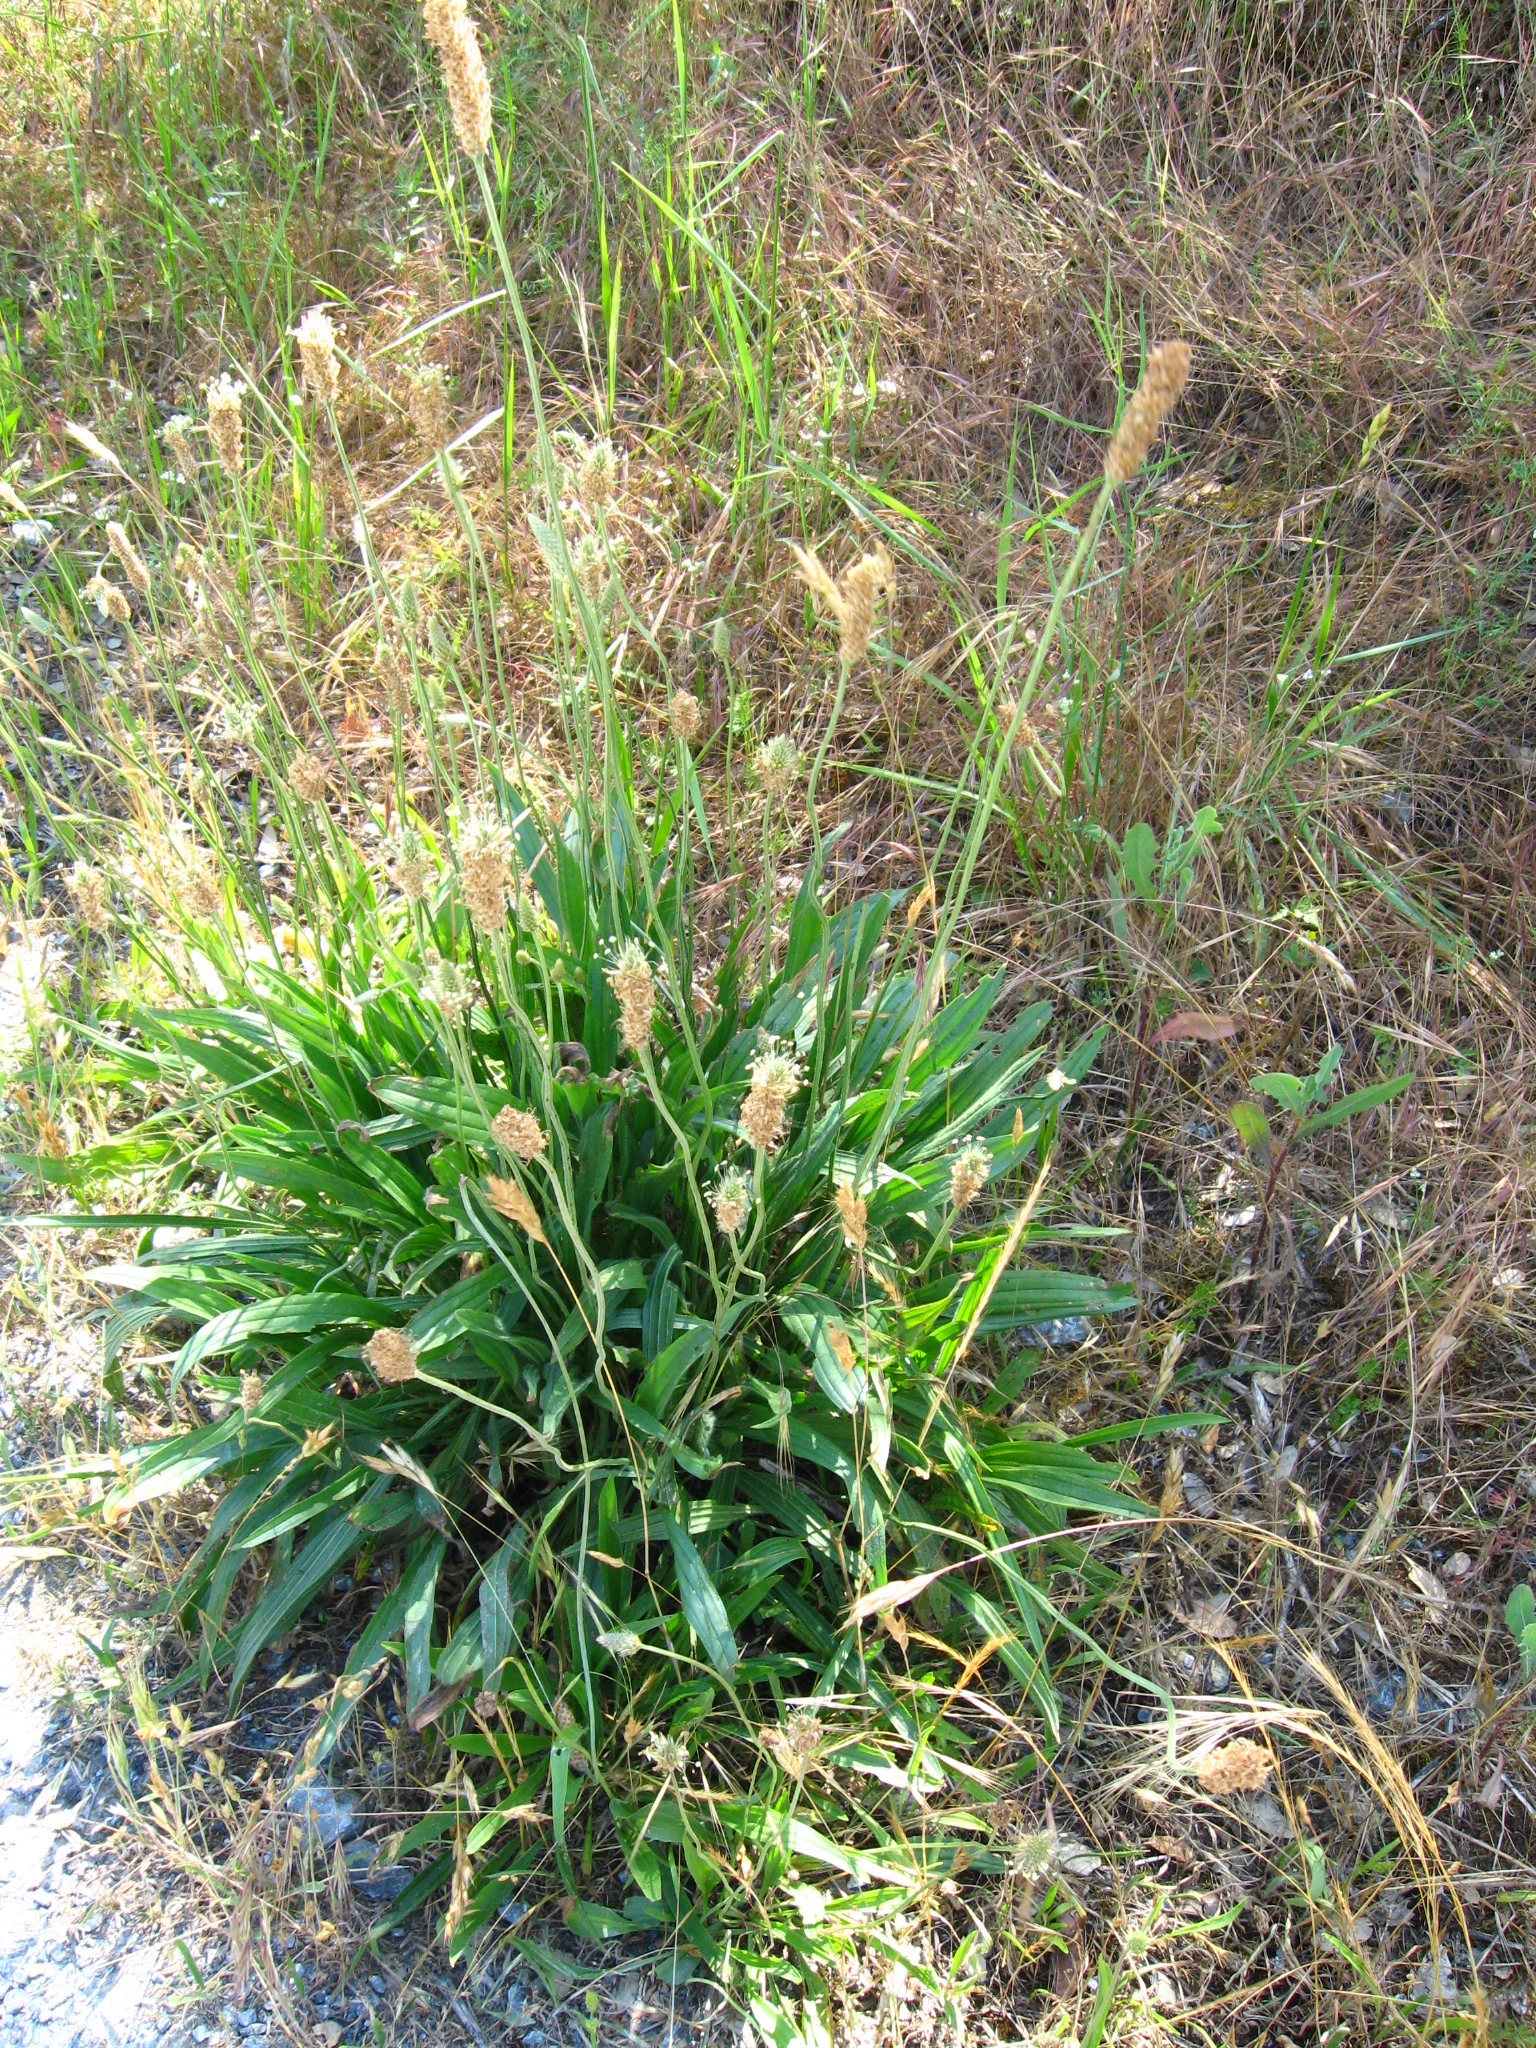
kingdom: Plantae
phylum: Tracheophyta
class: Magnoliopsida
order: Lamiales
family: Plantaginaceae
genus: Plantago
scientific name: Plantago lanceolata
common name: Ribwort plantain
